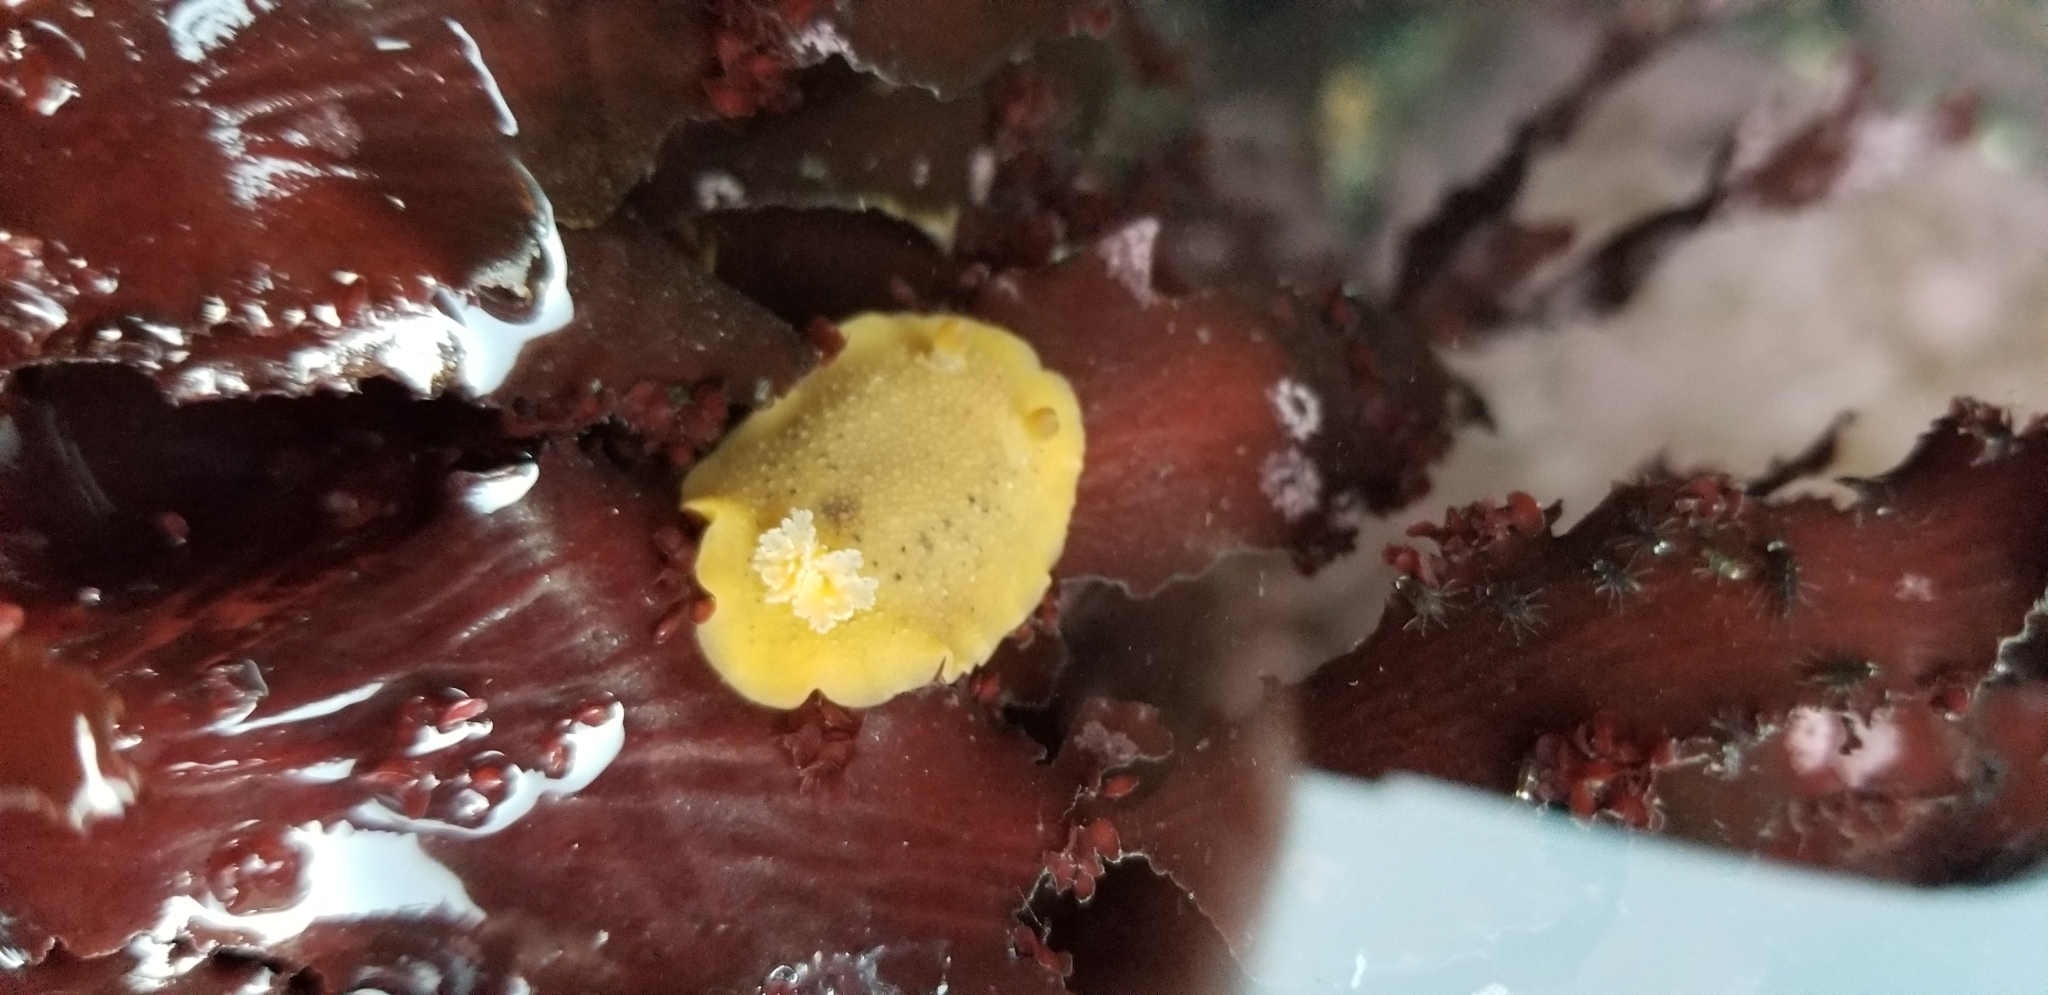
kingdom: Animalia
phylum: Mollusca
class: Gastropoda
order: Nudibranchia
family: Discodorididae
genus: Geitodoris
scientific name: Geitodoris heathi
